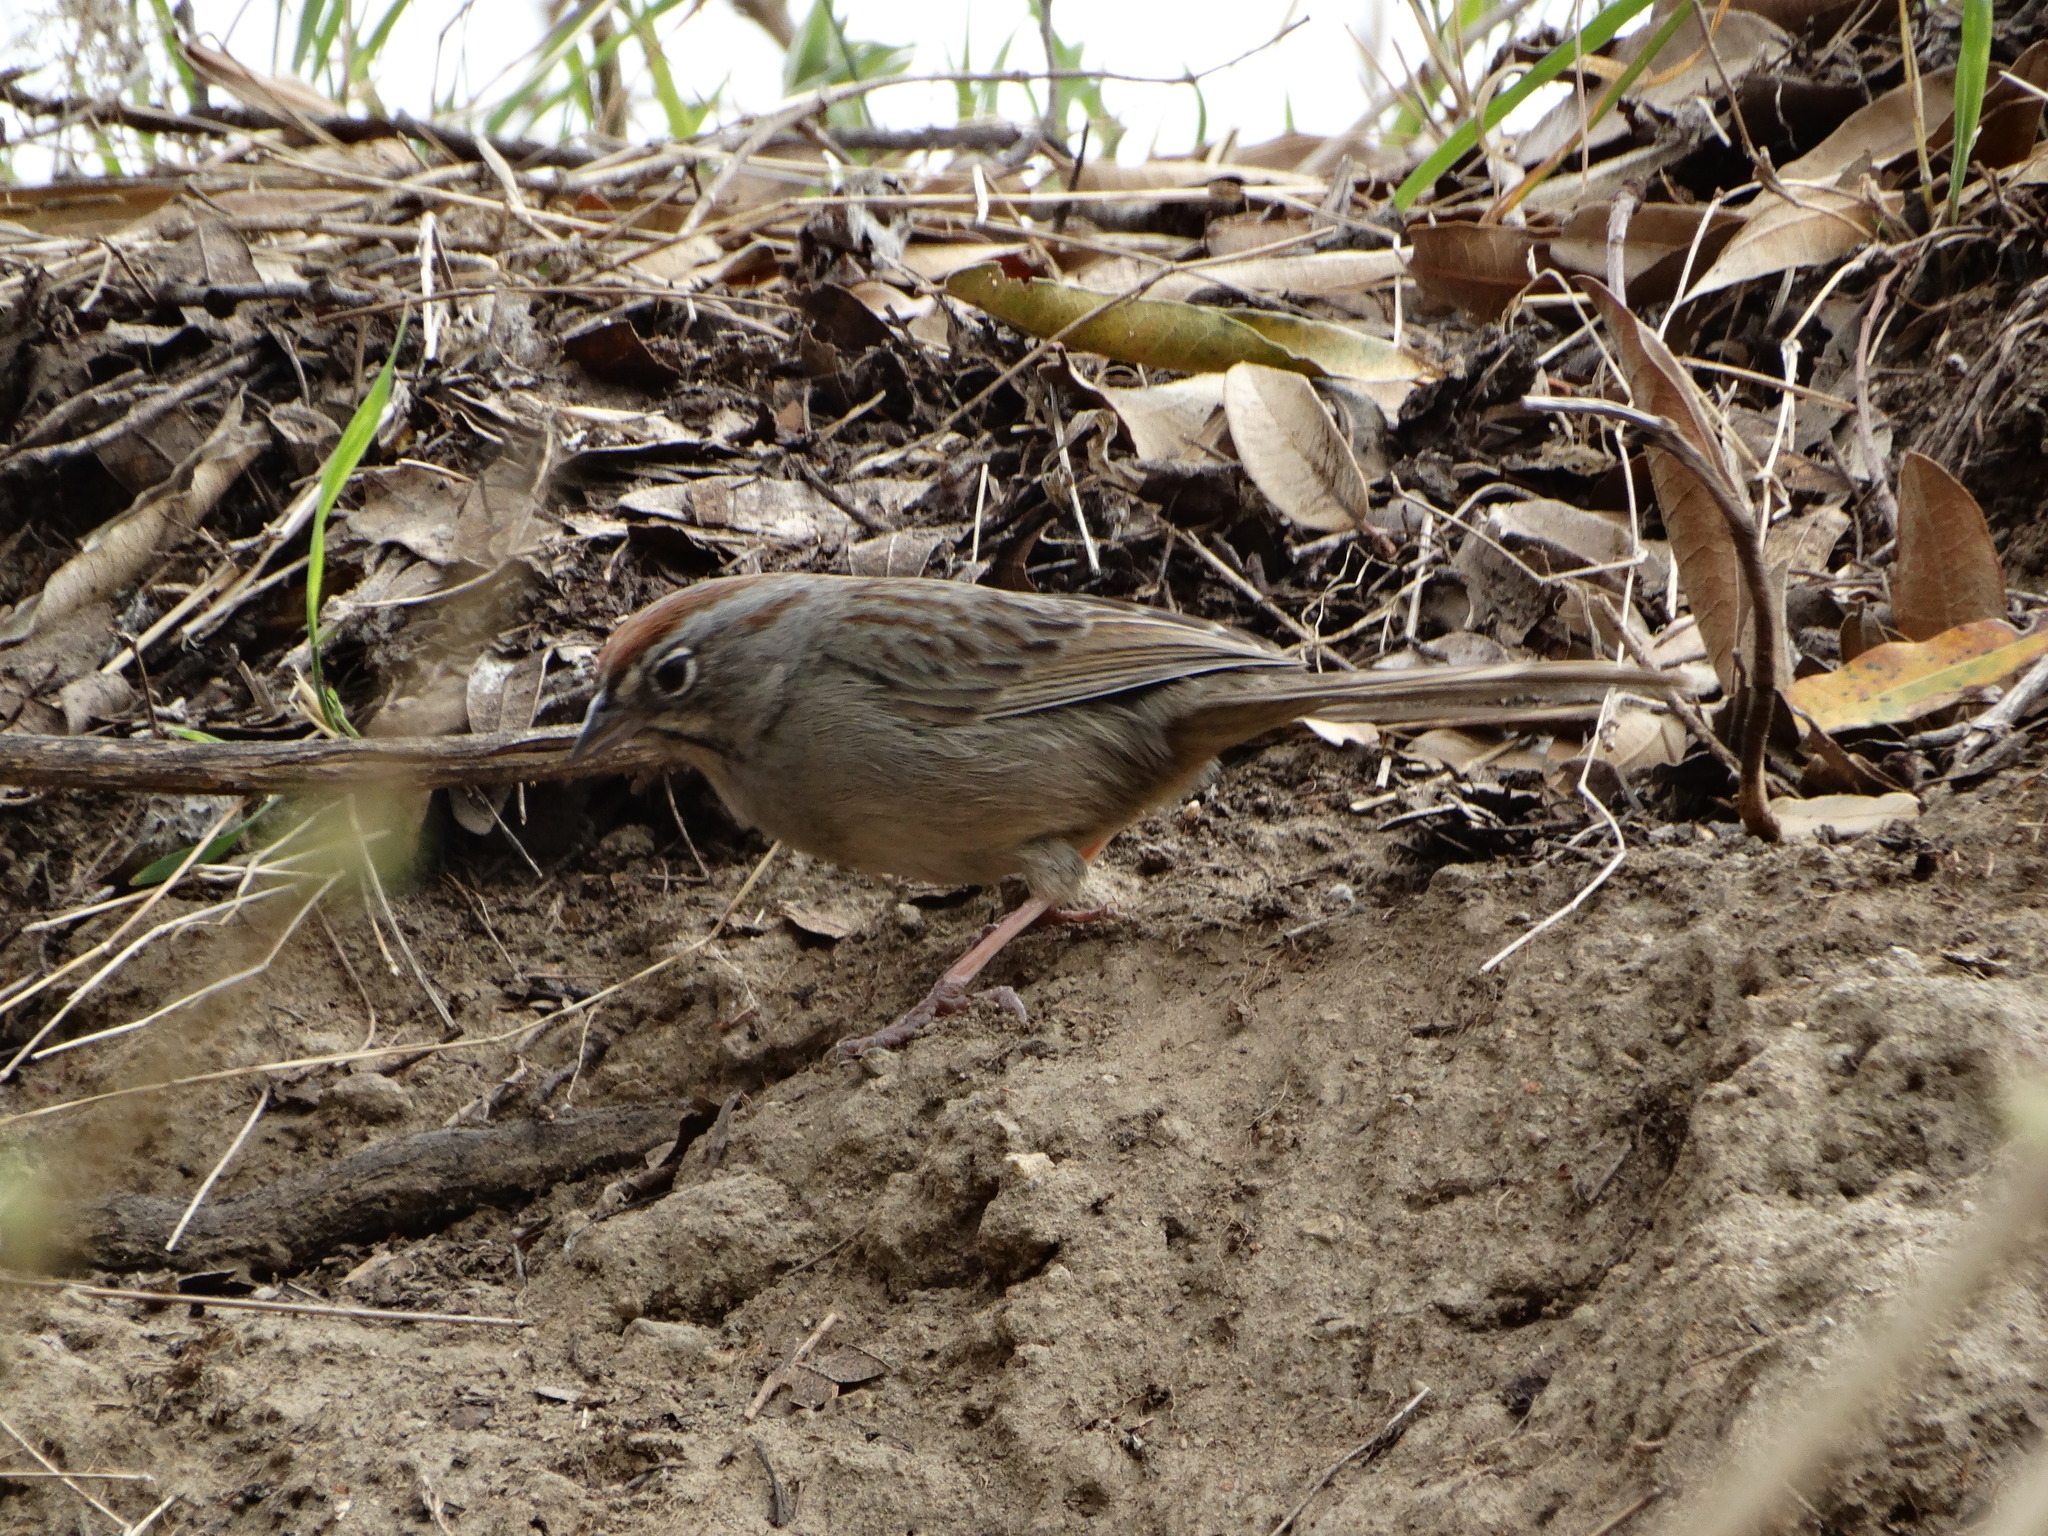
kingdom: Animalia
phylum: Chordata
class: Aves
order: Passeriformes
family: Passerellidae
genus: Aimophila
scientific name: Aimophila ruficeps
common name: Rufous-crowned sparrow
